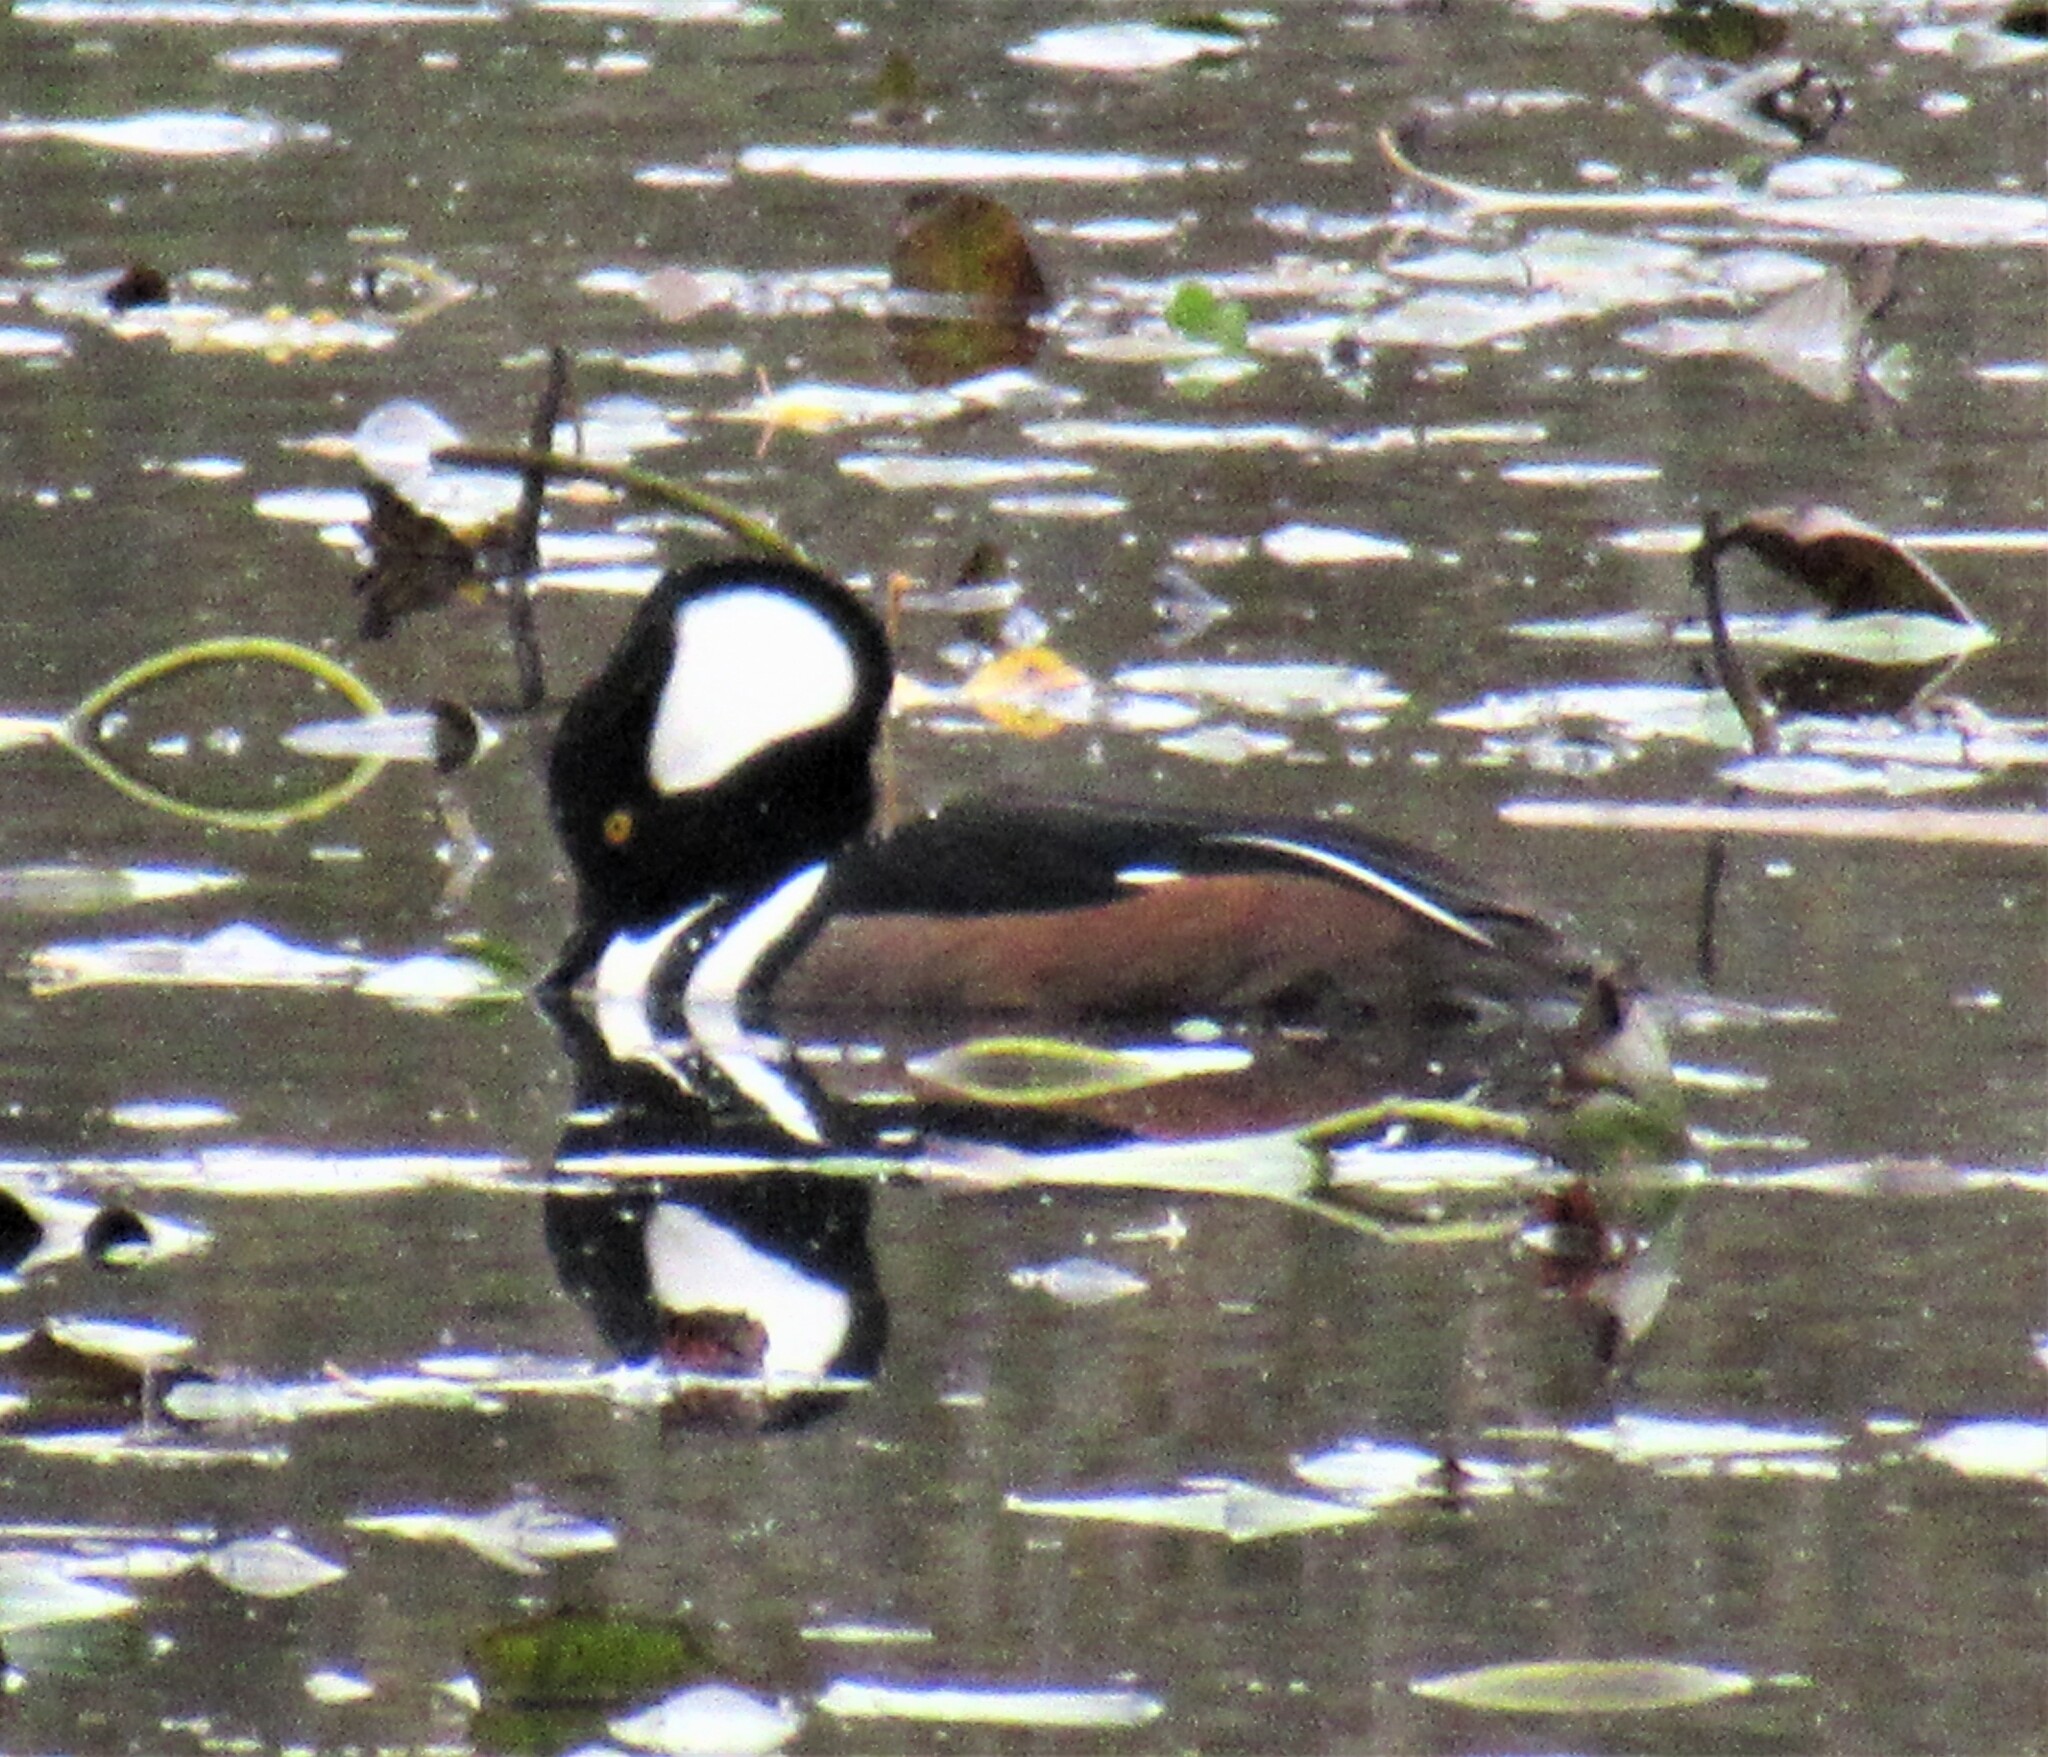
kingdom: Animalia
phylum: Chordata
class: Aves
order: Anseriformes
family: Anatidae
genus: Lophodytes
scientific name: Lophodytes cucullatus
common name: Hooded merganser
